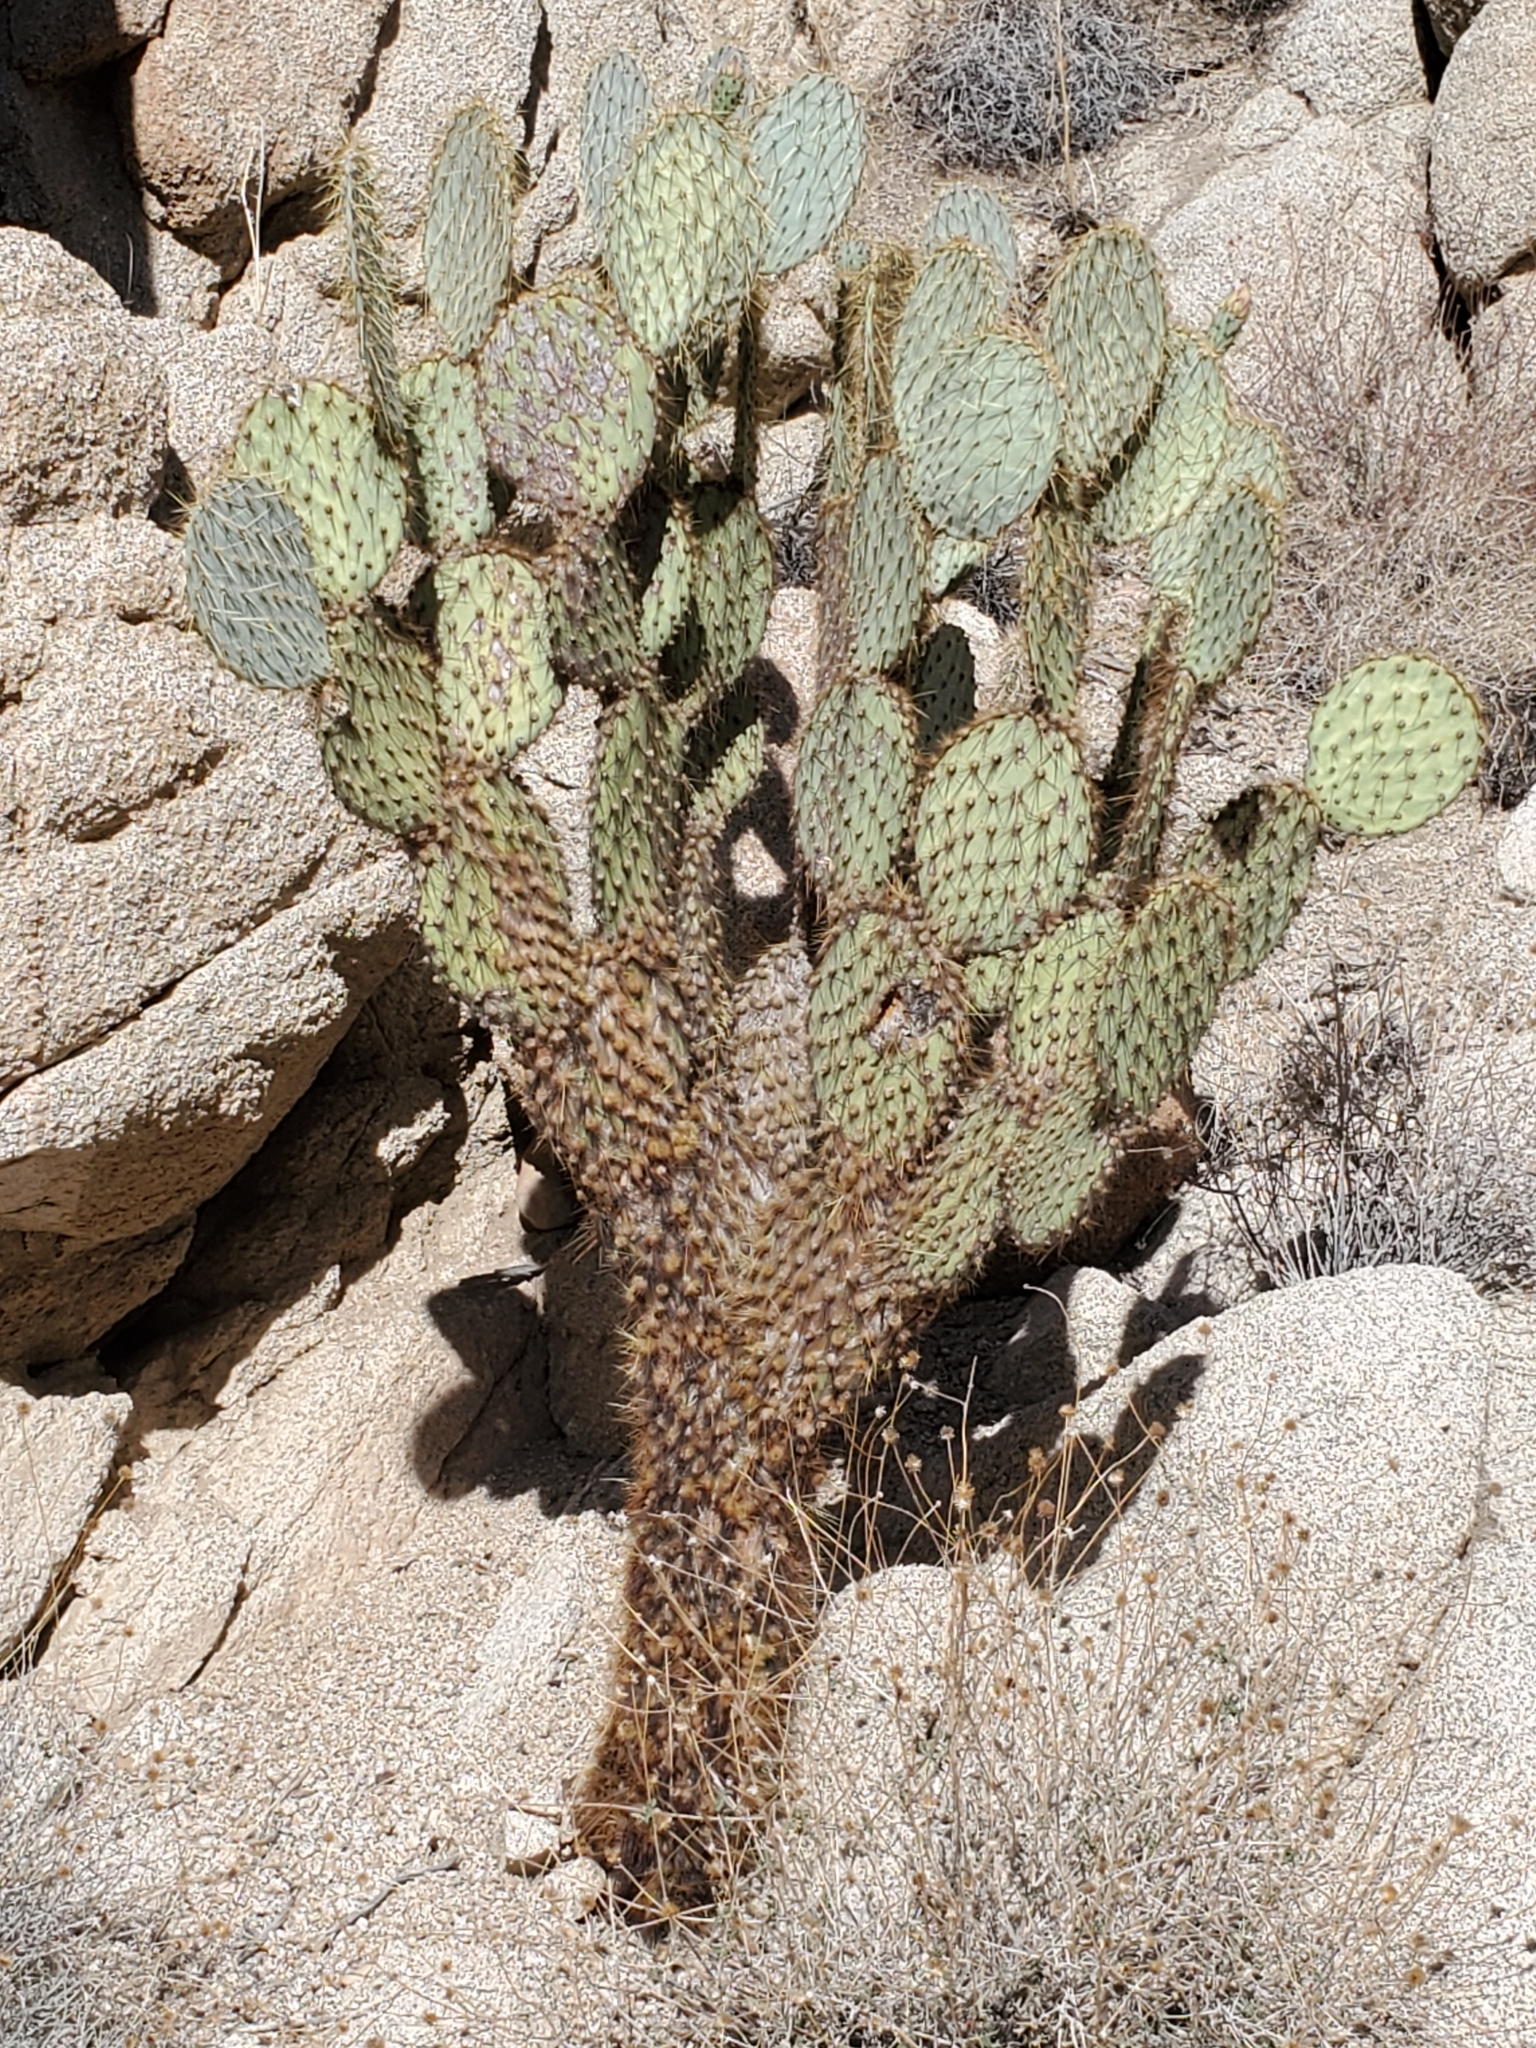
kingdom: Plantae
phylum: Tracheophyta
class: Magnoliopsida
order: Caryophyllales
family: Cactaceae
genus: Opuntia
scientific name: Opuntia chlorotica
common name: Dollar-joint prickly-pear
